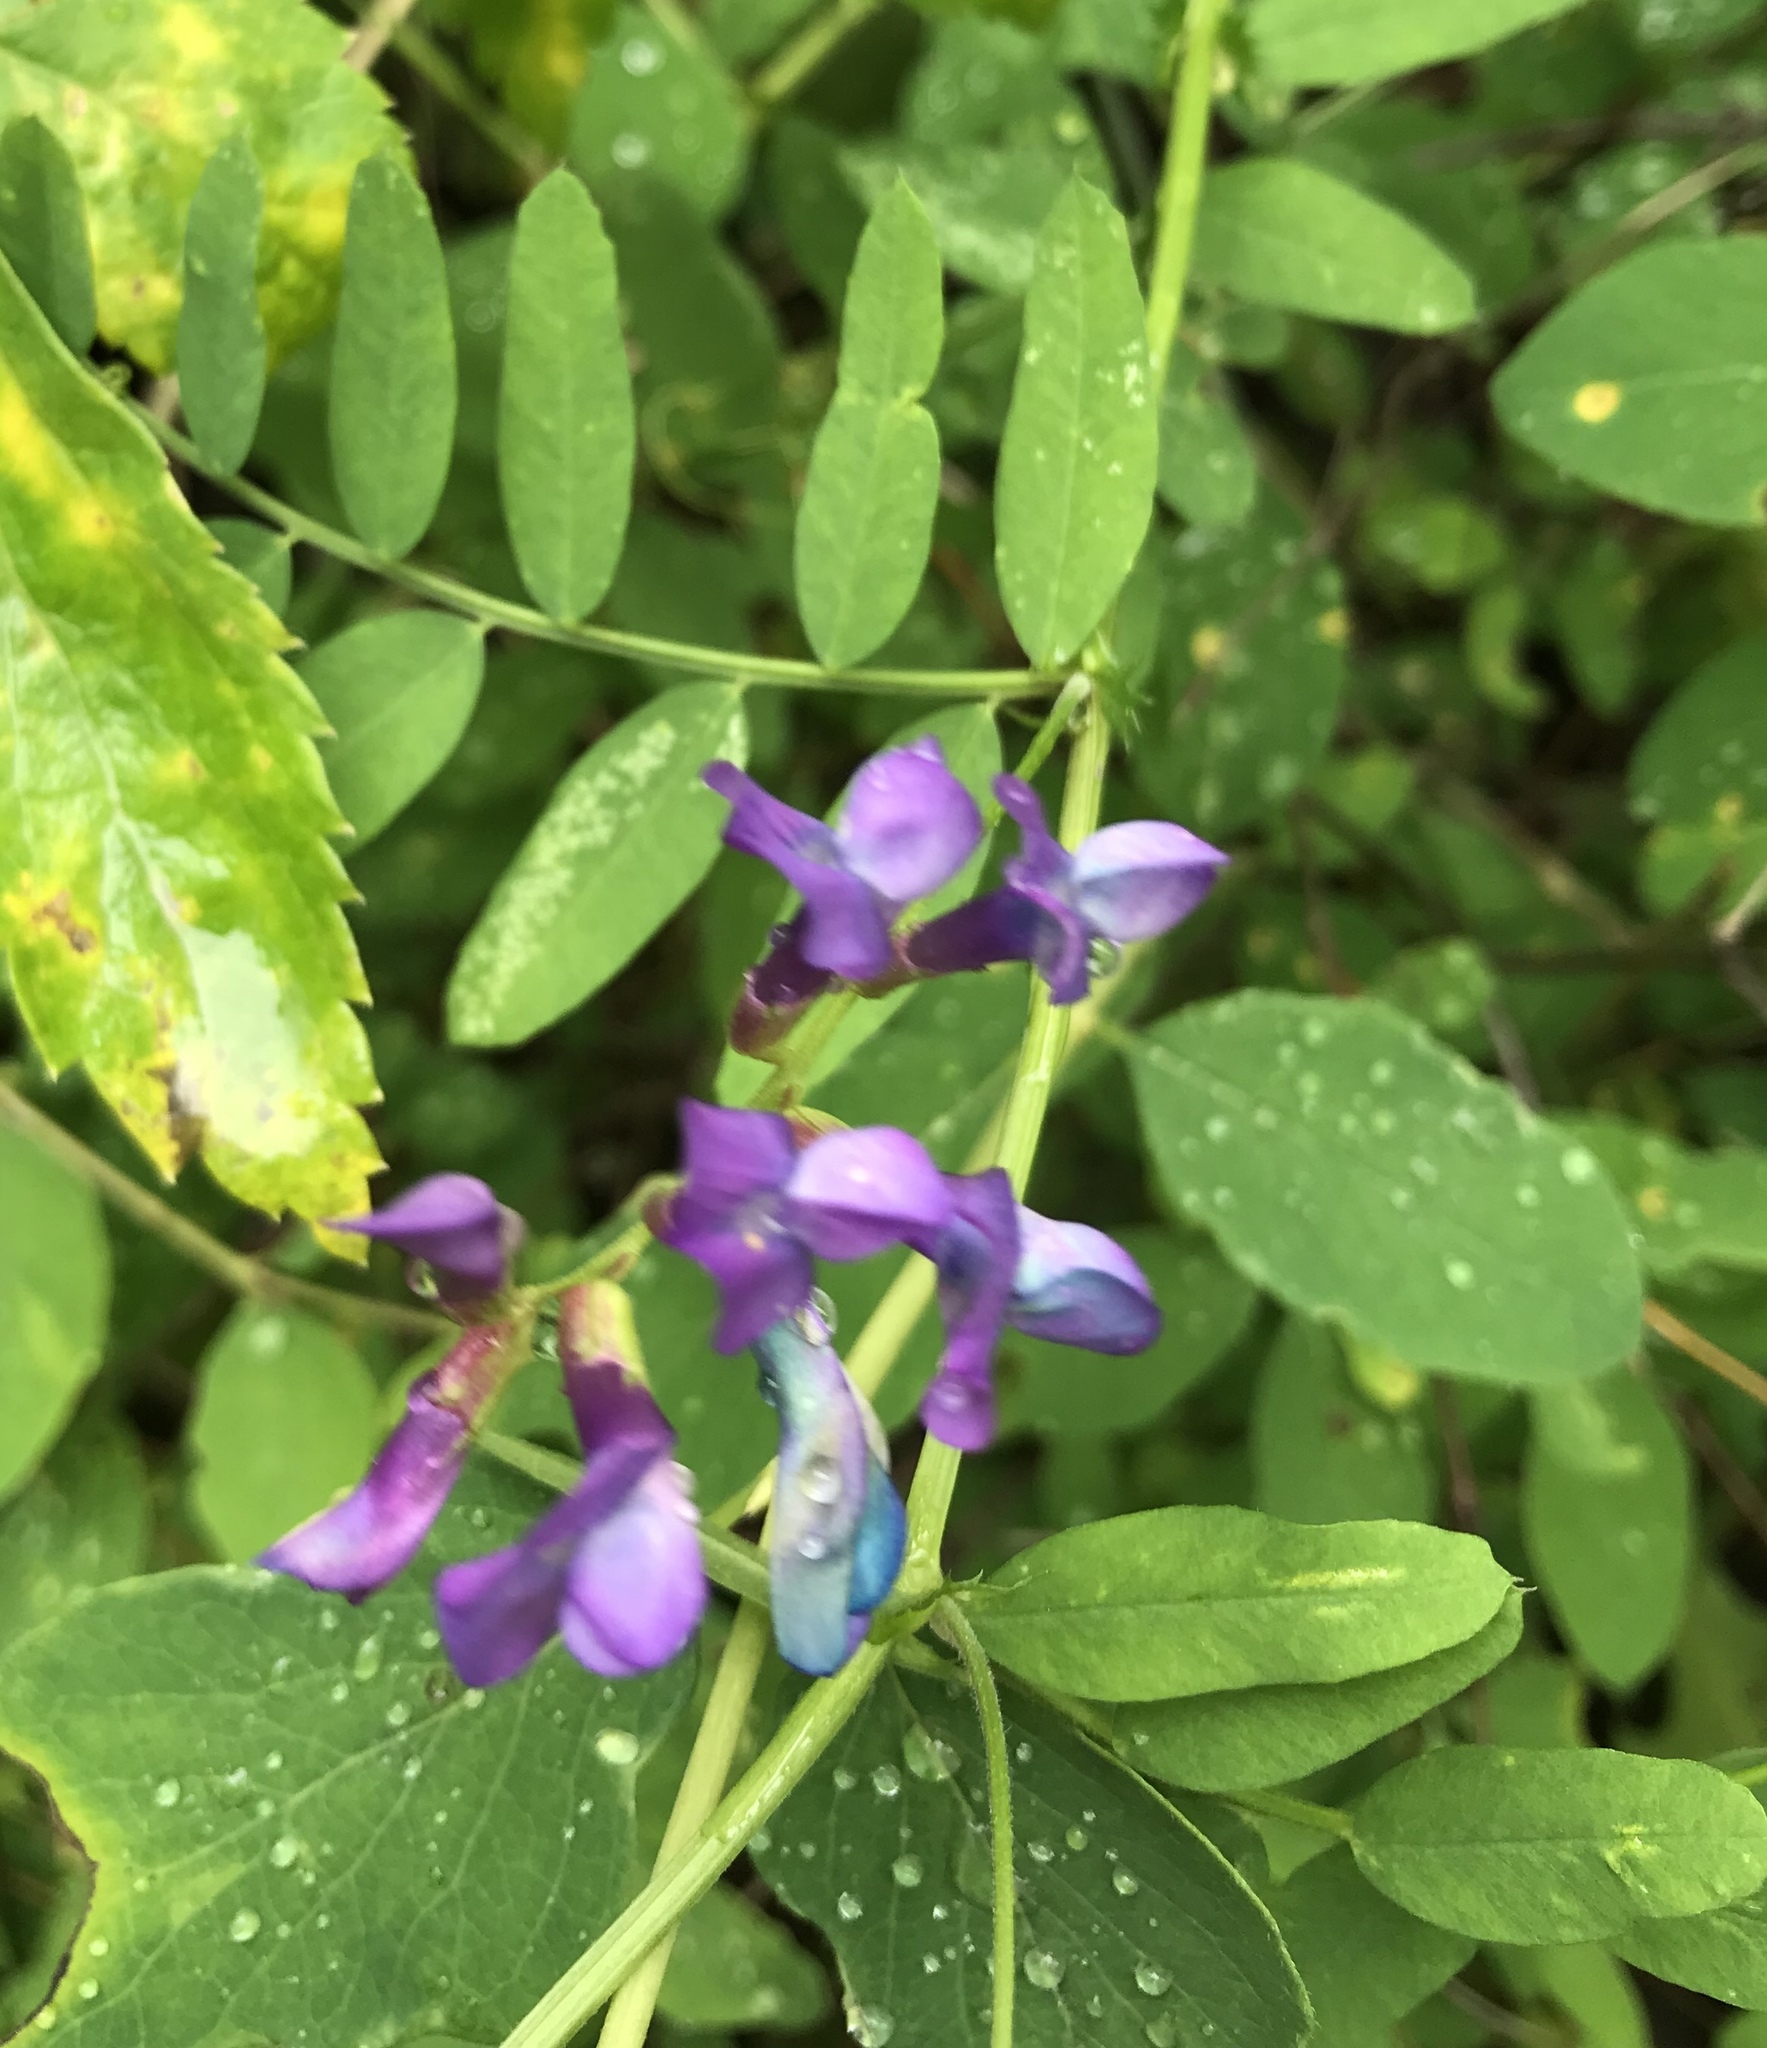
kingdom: Plantae
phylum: Tracheophyta
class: Magnoliopsida
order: Fabales
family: Fabaceae
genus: Vicia
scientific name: Vicia americana
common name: American vetch
